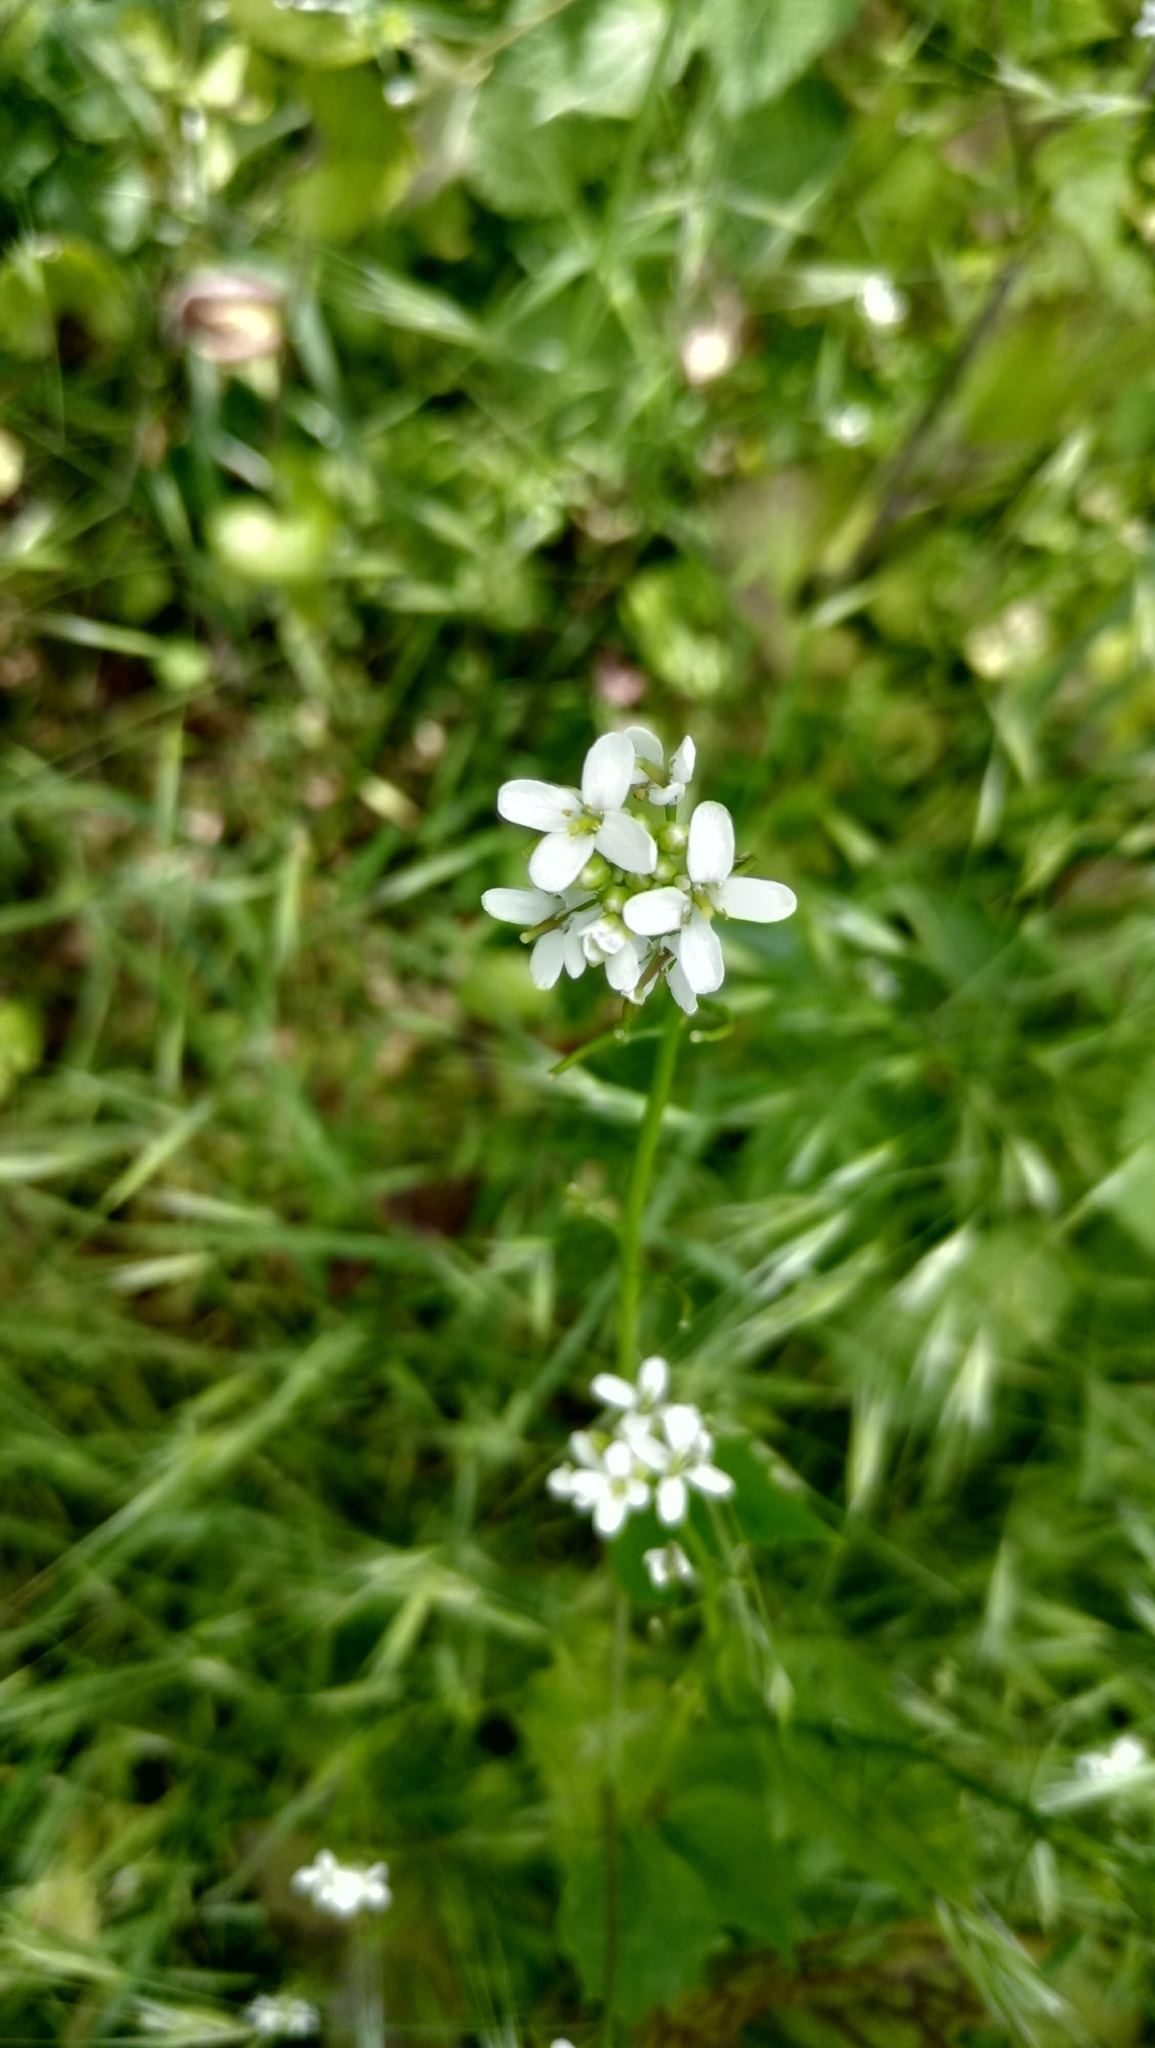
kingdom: Plantae
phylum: Tracheophyta
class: Magnoliopsida
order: Brassicales
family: Brassicaceae
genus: Alliaria
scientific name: Alliaria petiolata
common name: Garlic mustard
